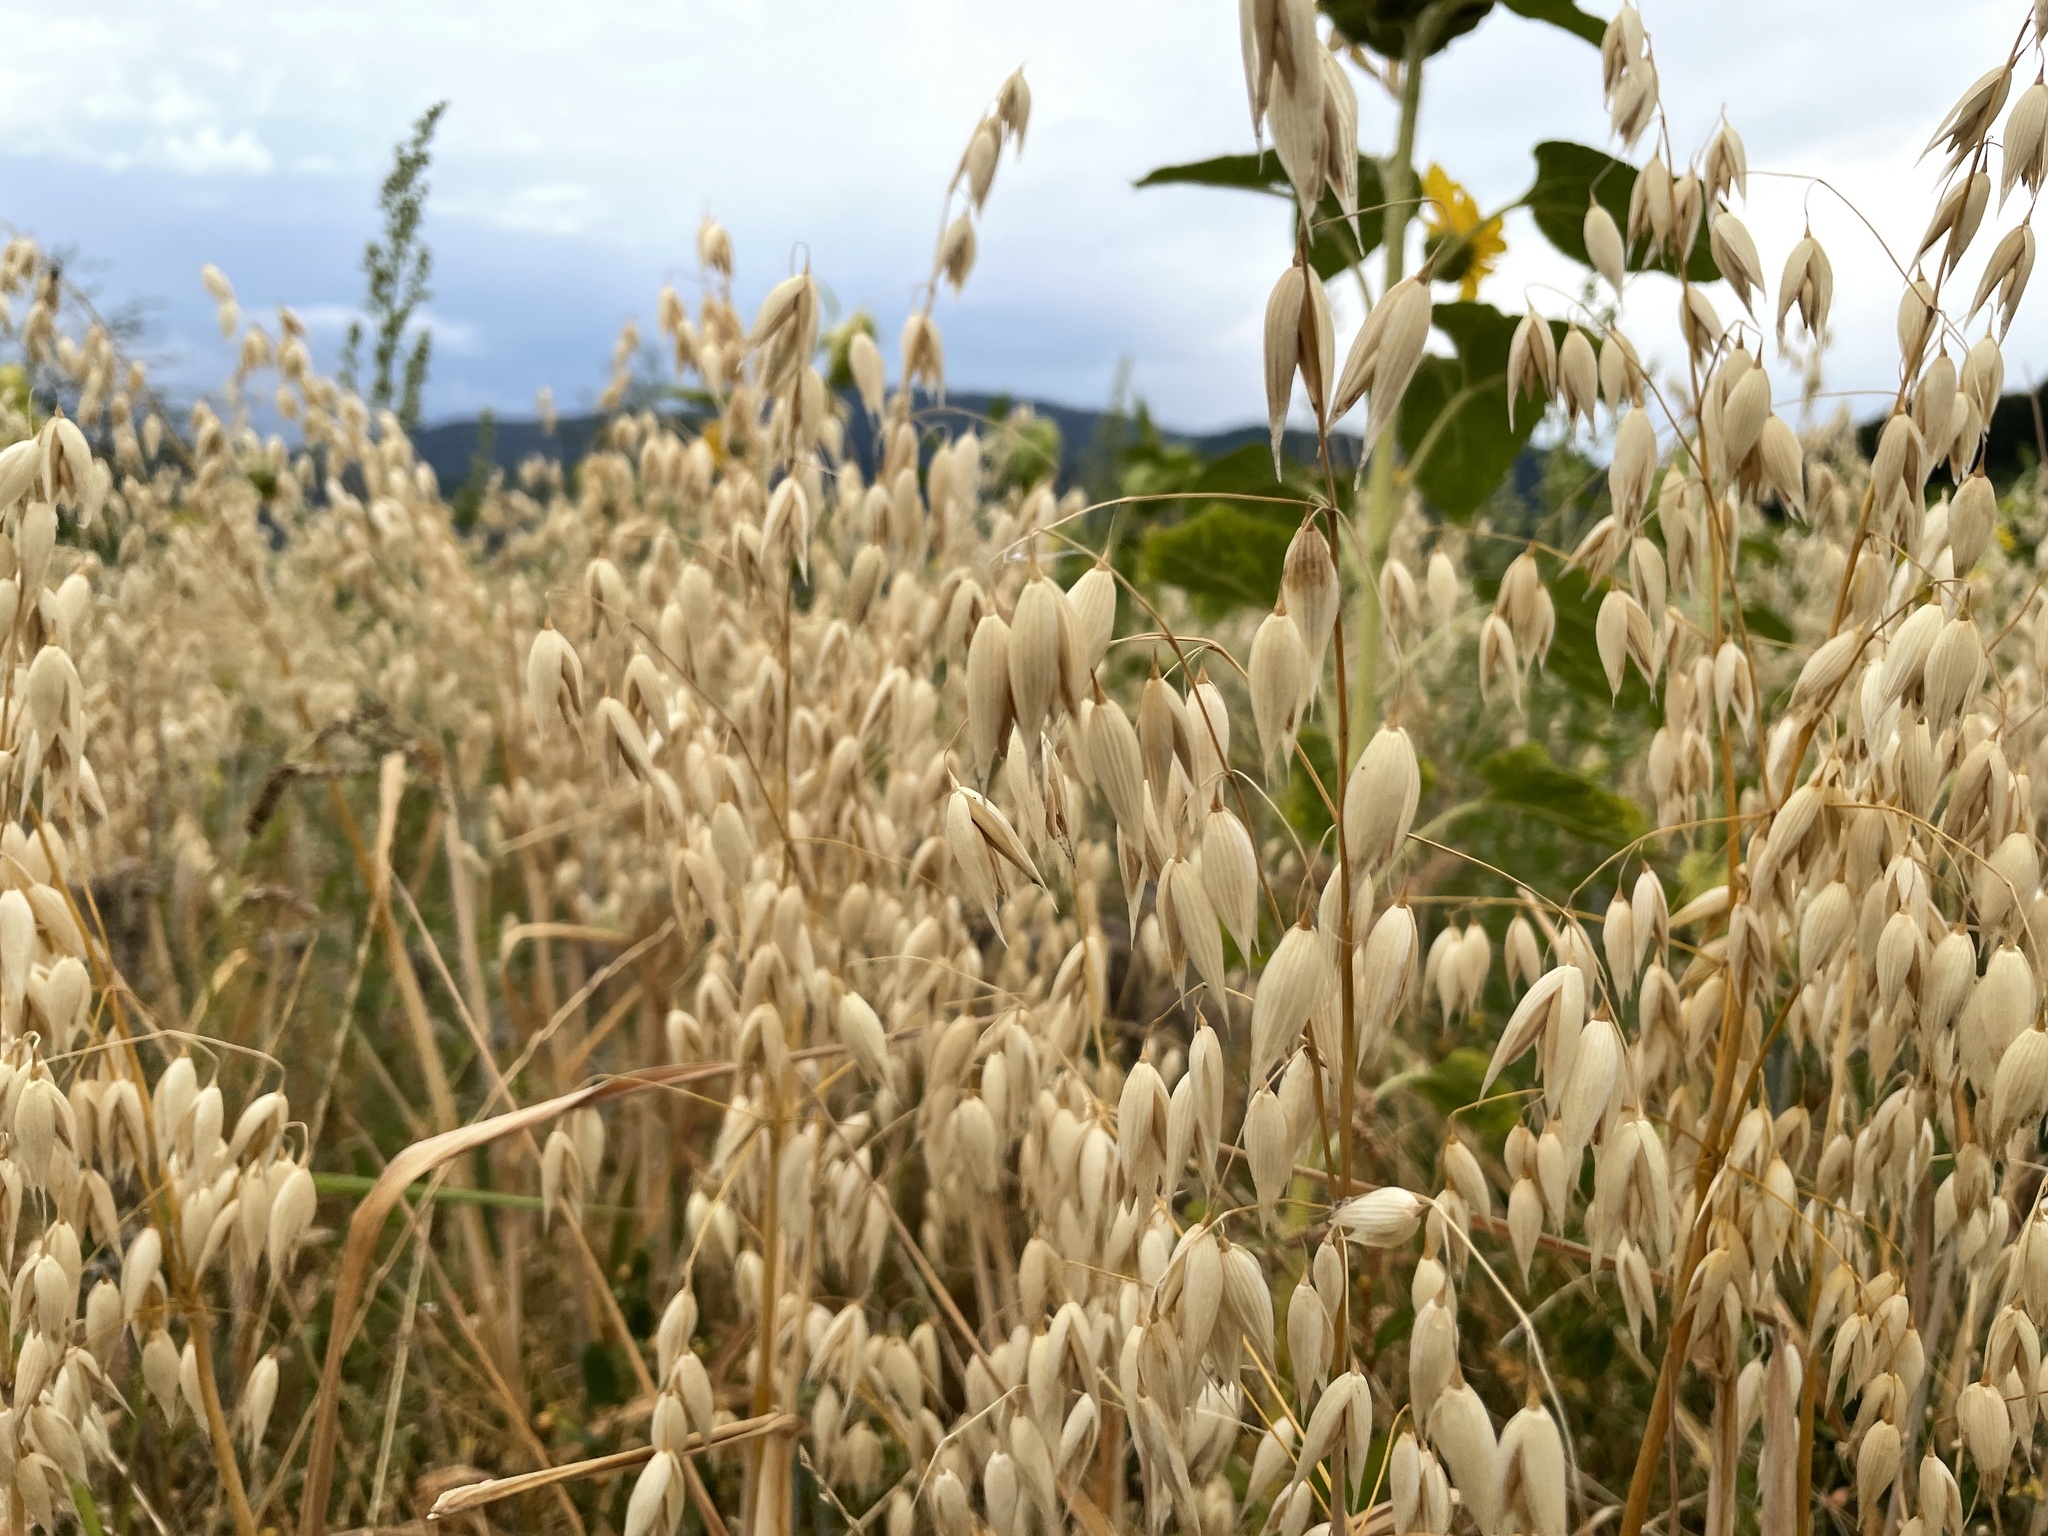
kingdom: Plantae
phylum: Tracheophyta
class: Liliopsida
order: Poales
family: Poaceae
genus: Avena
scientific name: Avena sativa
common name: Oat
